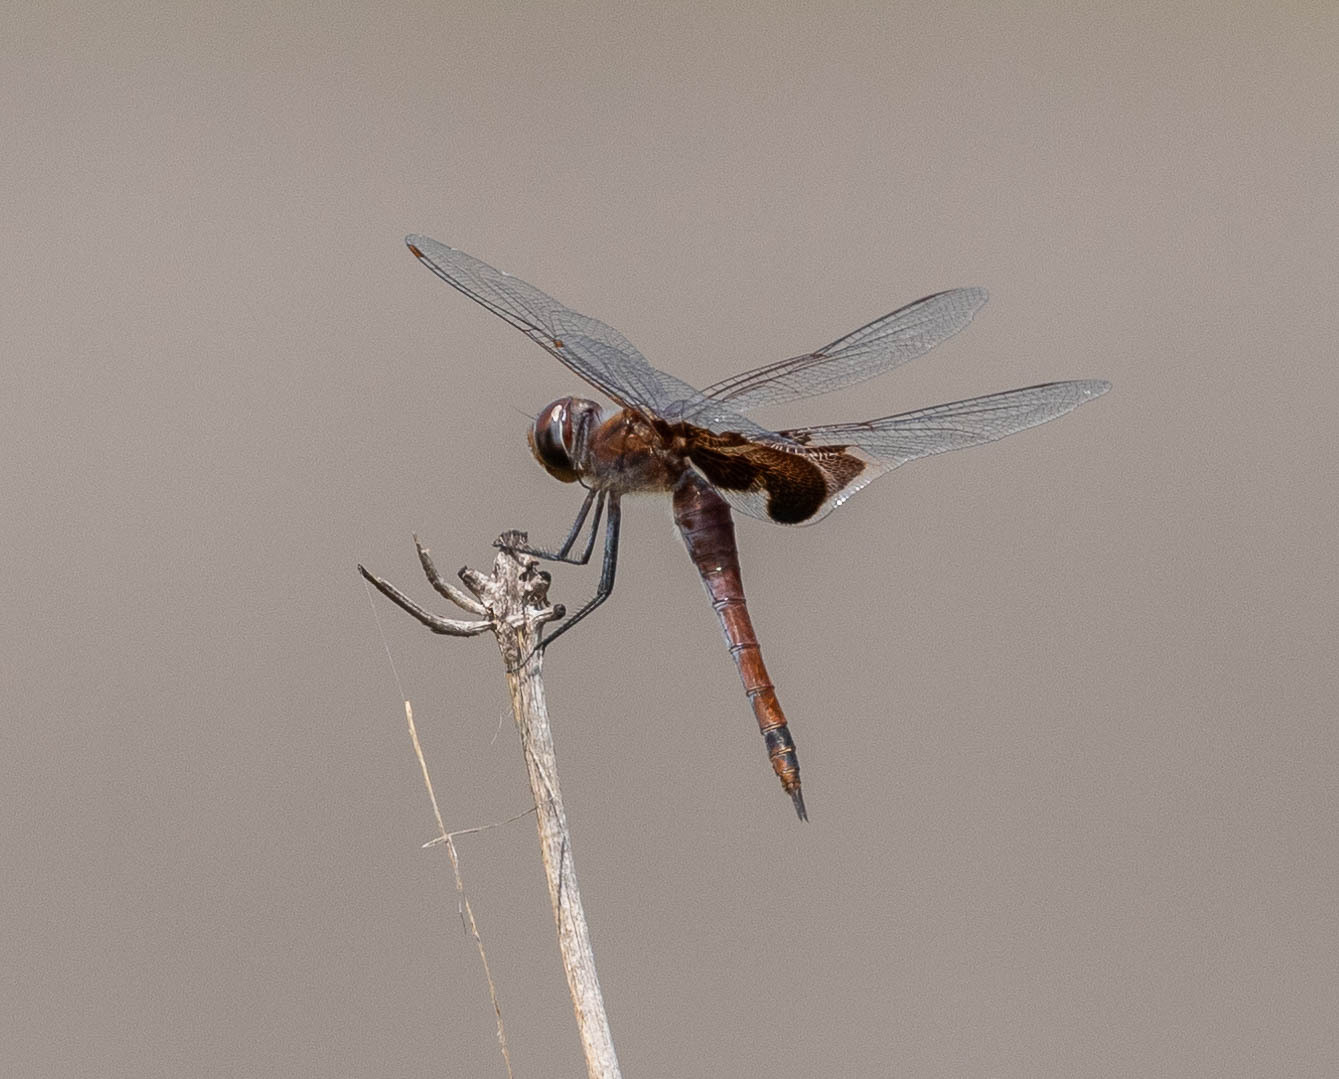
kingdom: Animalia
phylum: Arthropoda
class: Insecta
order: Odonata
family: Libellulidae
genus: Tramea
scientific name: Tramea carolina
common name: Carolina saddlebags
